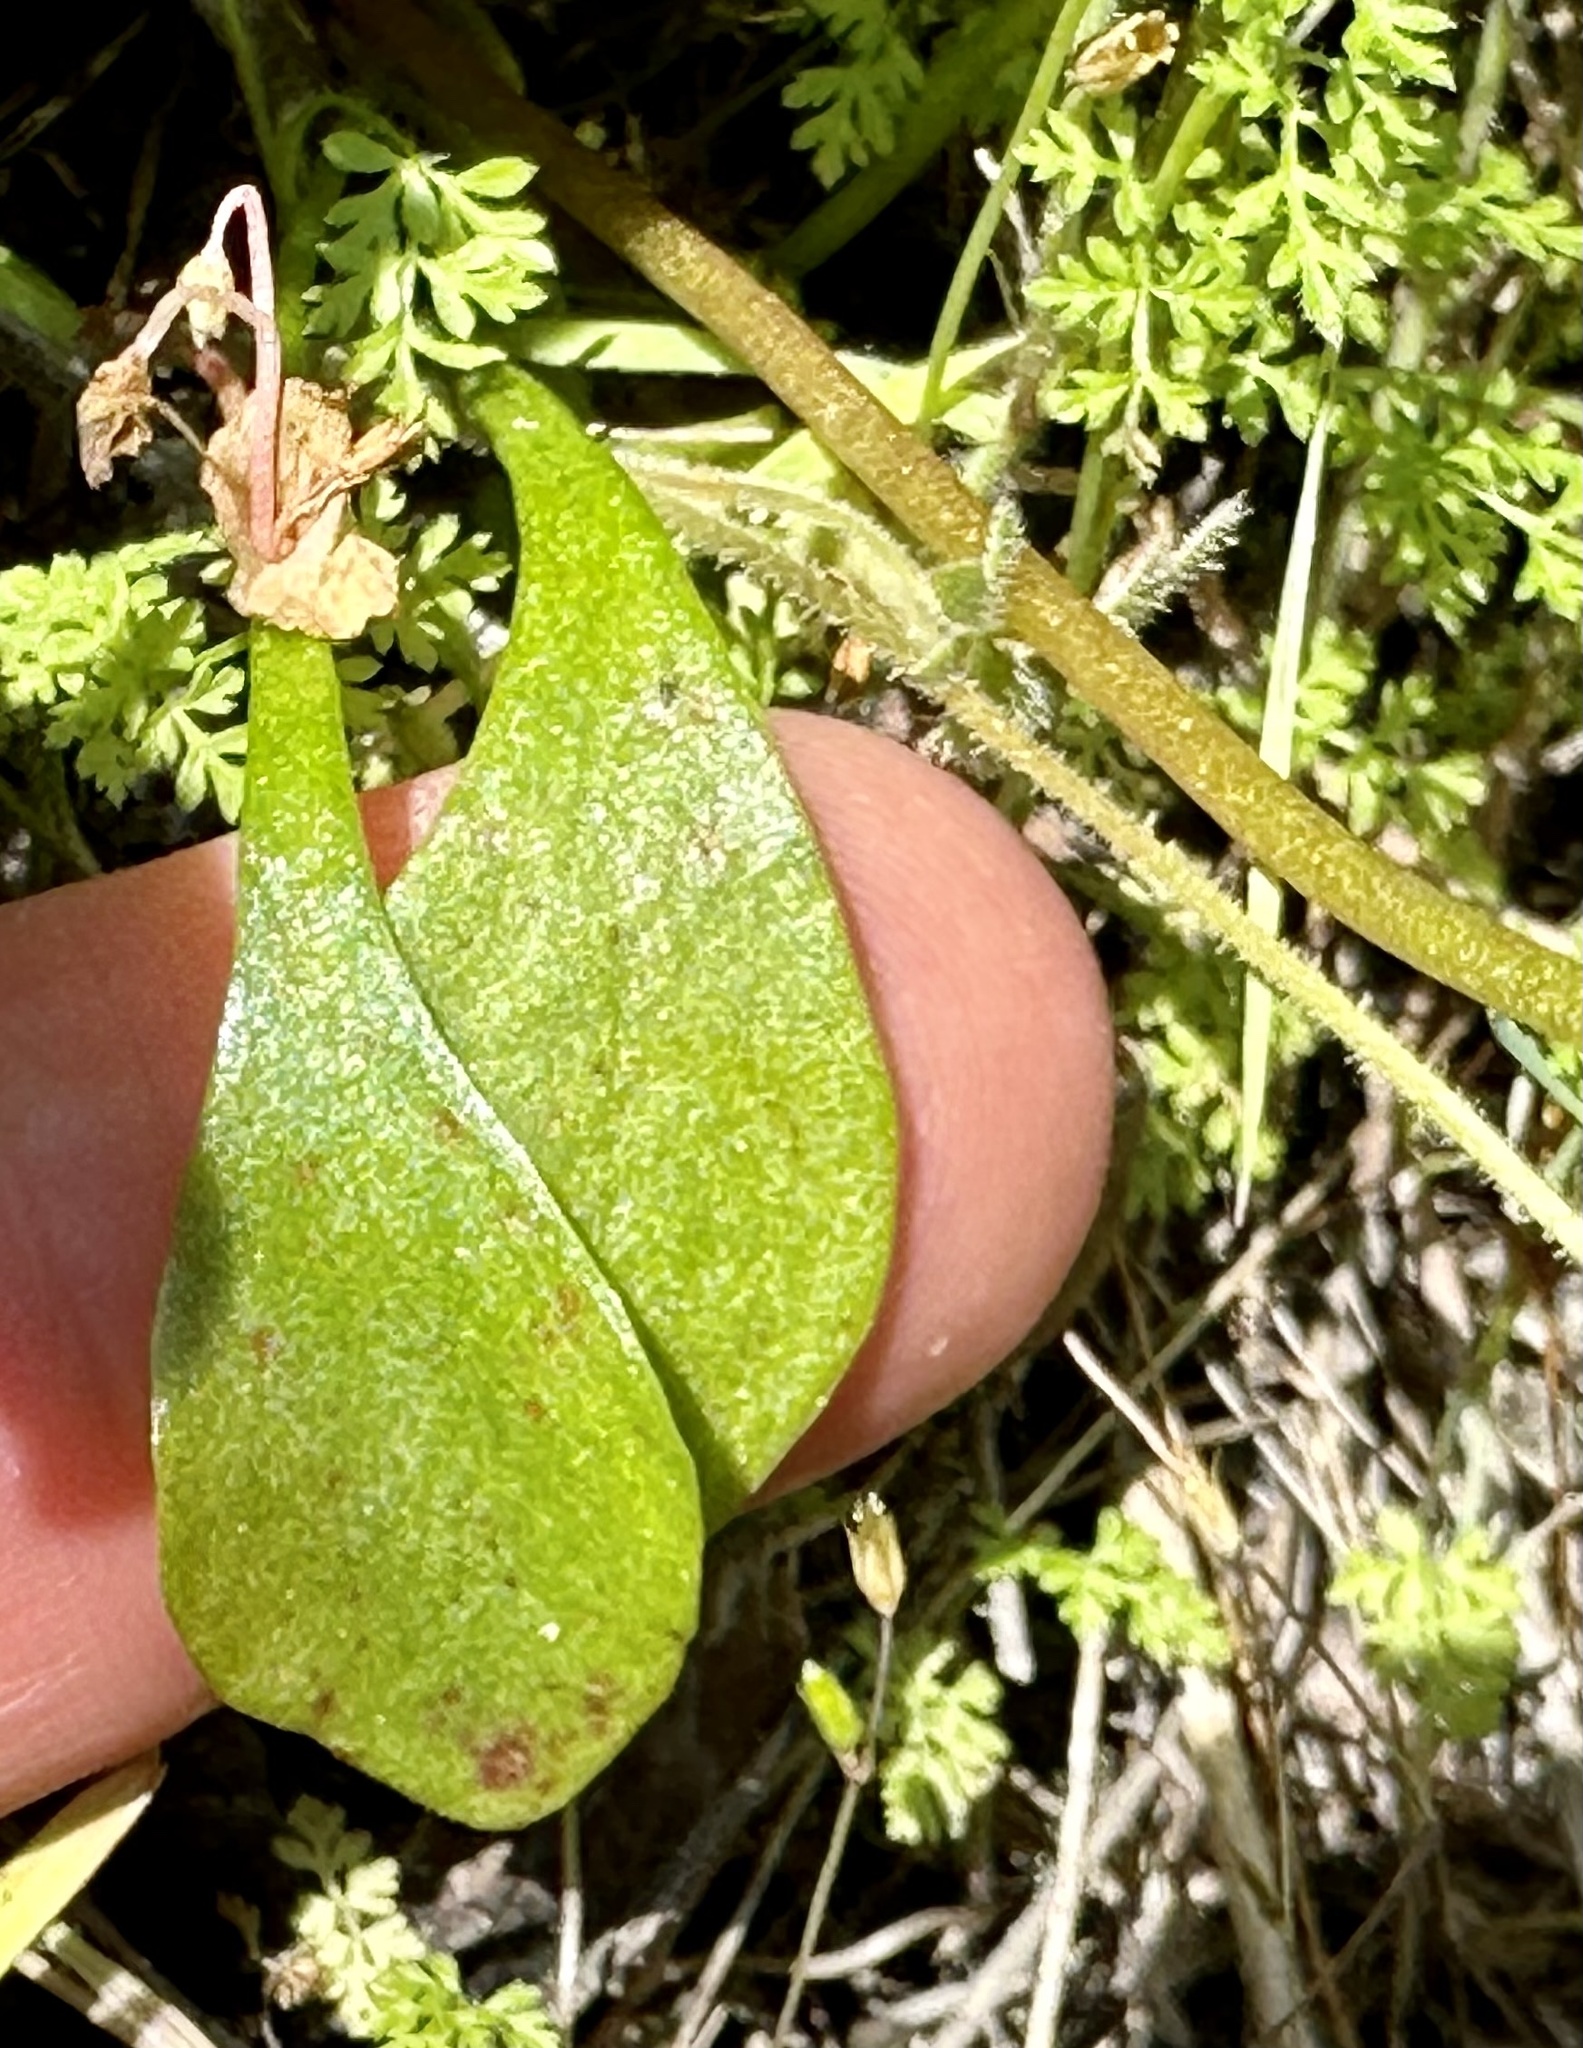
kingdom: Plantae
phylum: Tracheophyta
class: Magnoliopsida
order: Caryophyllales
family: Montiaceae
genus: Claytonia
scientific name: Claytonia perfoliata
